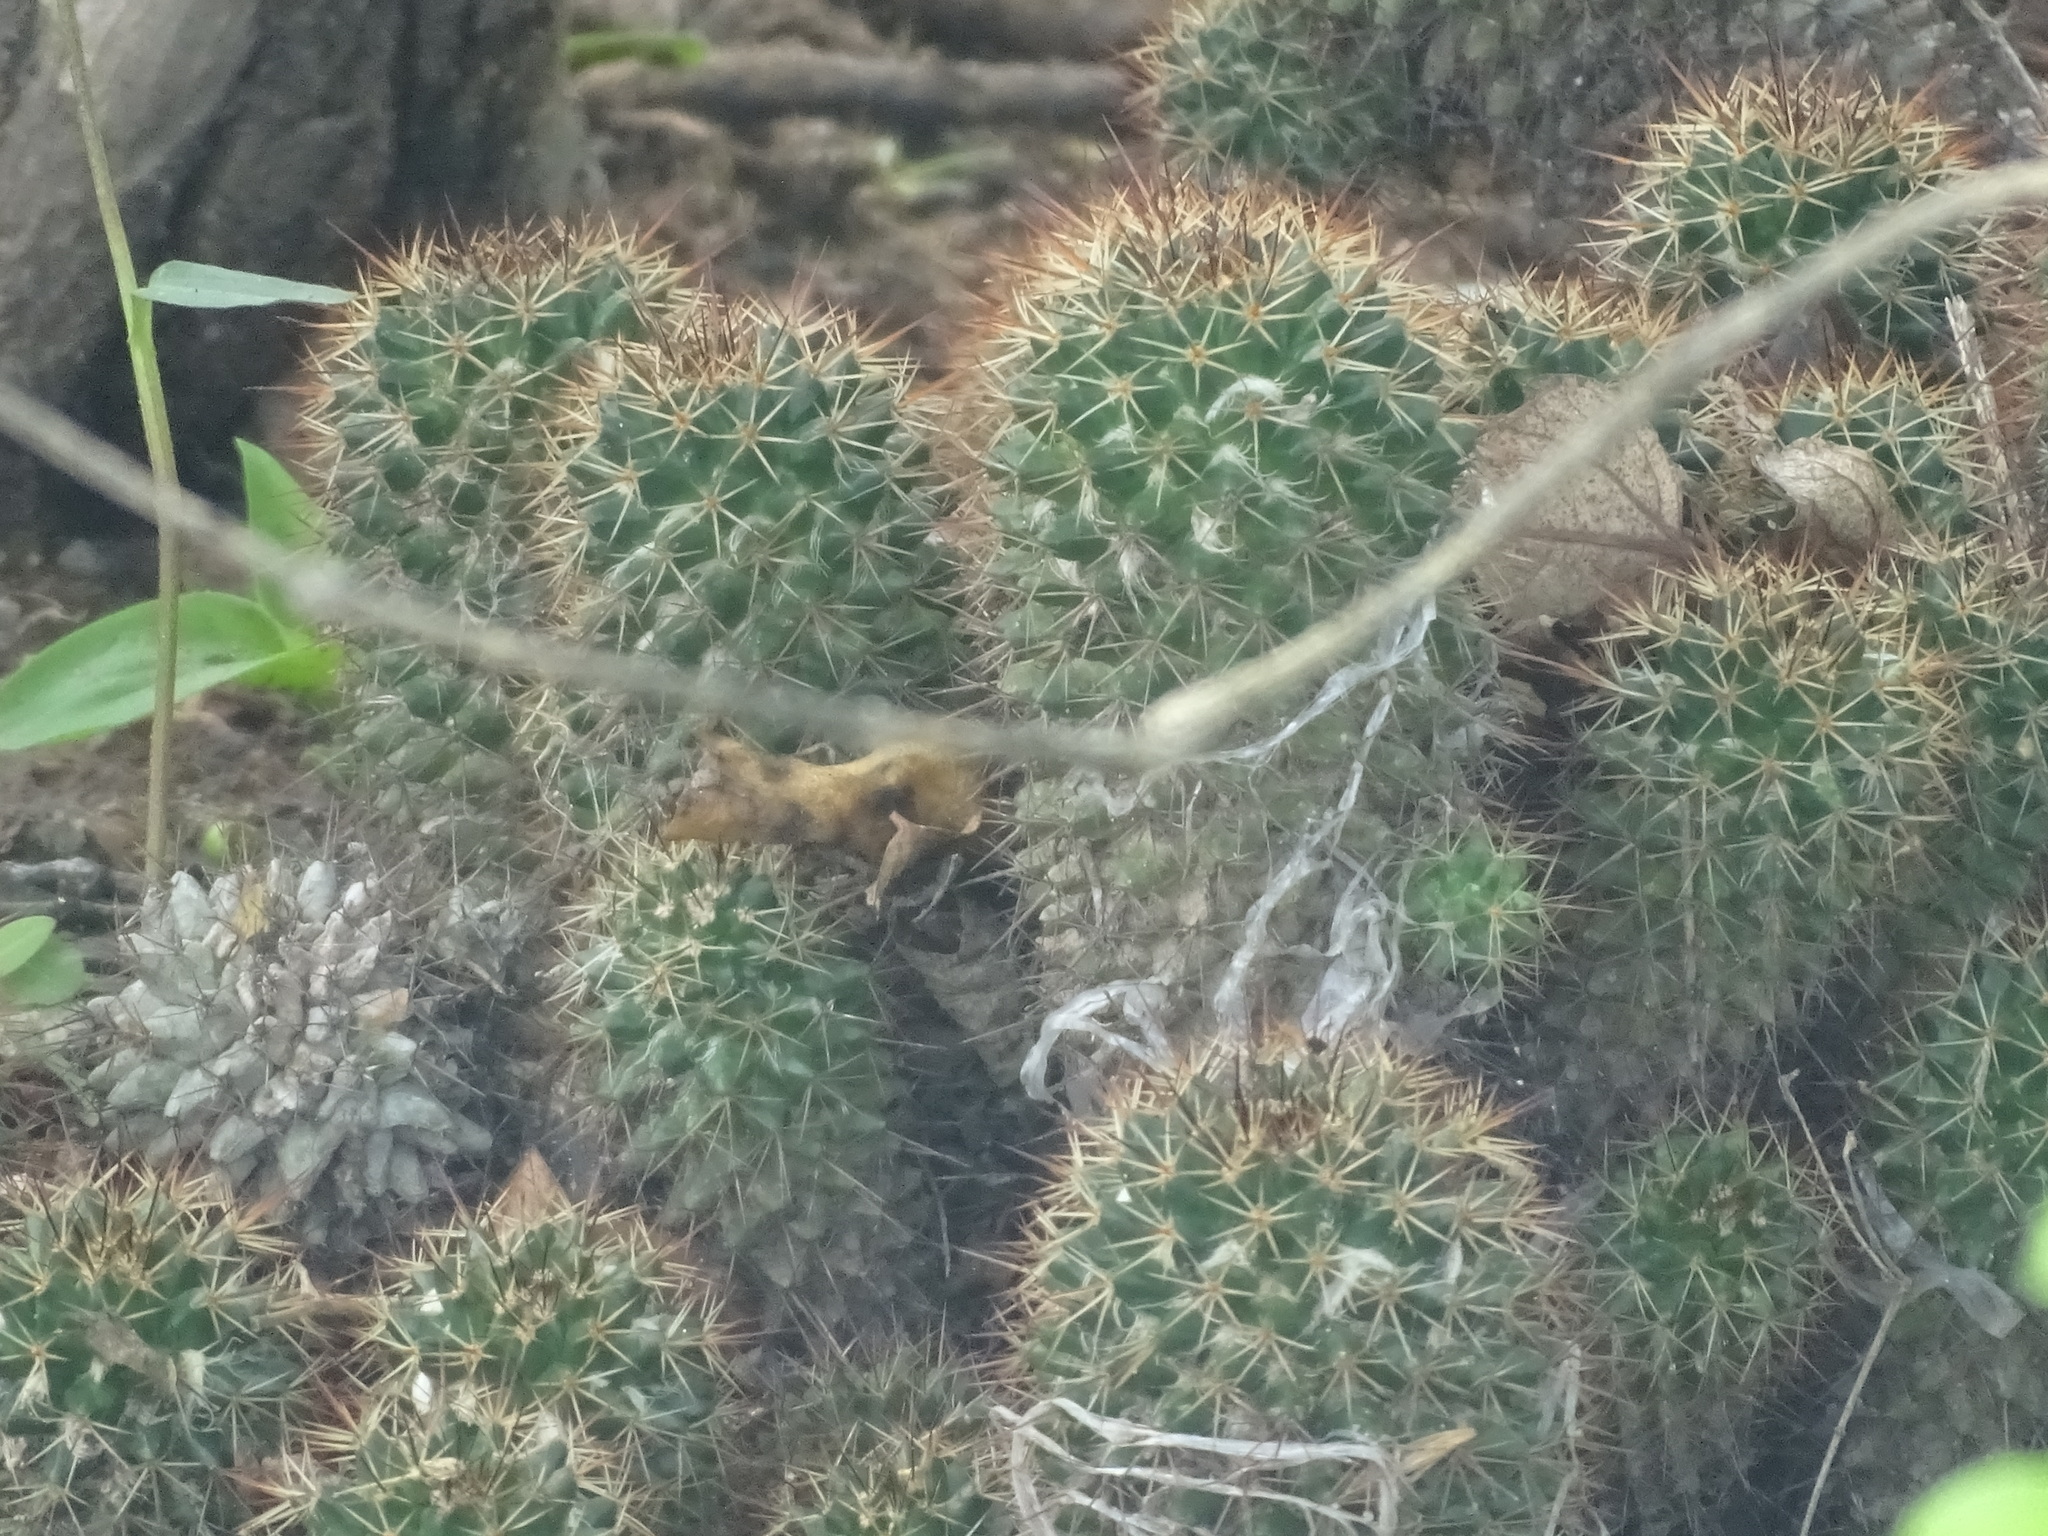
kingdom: Plantae
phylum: Tracheophyta
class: Magnoliopsida
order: Caryophyllales
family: Cactaceae
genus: Mammillaria
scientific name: Mammillaria karwinskiana
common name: Royal cross
